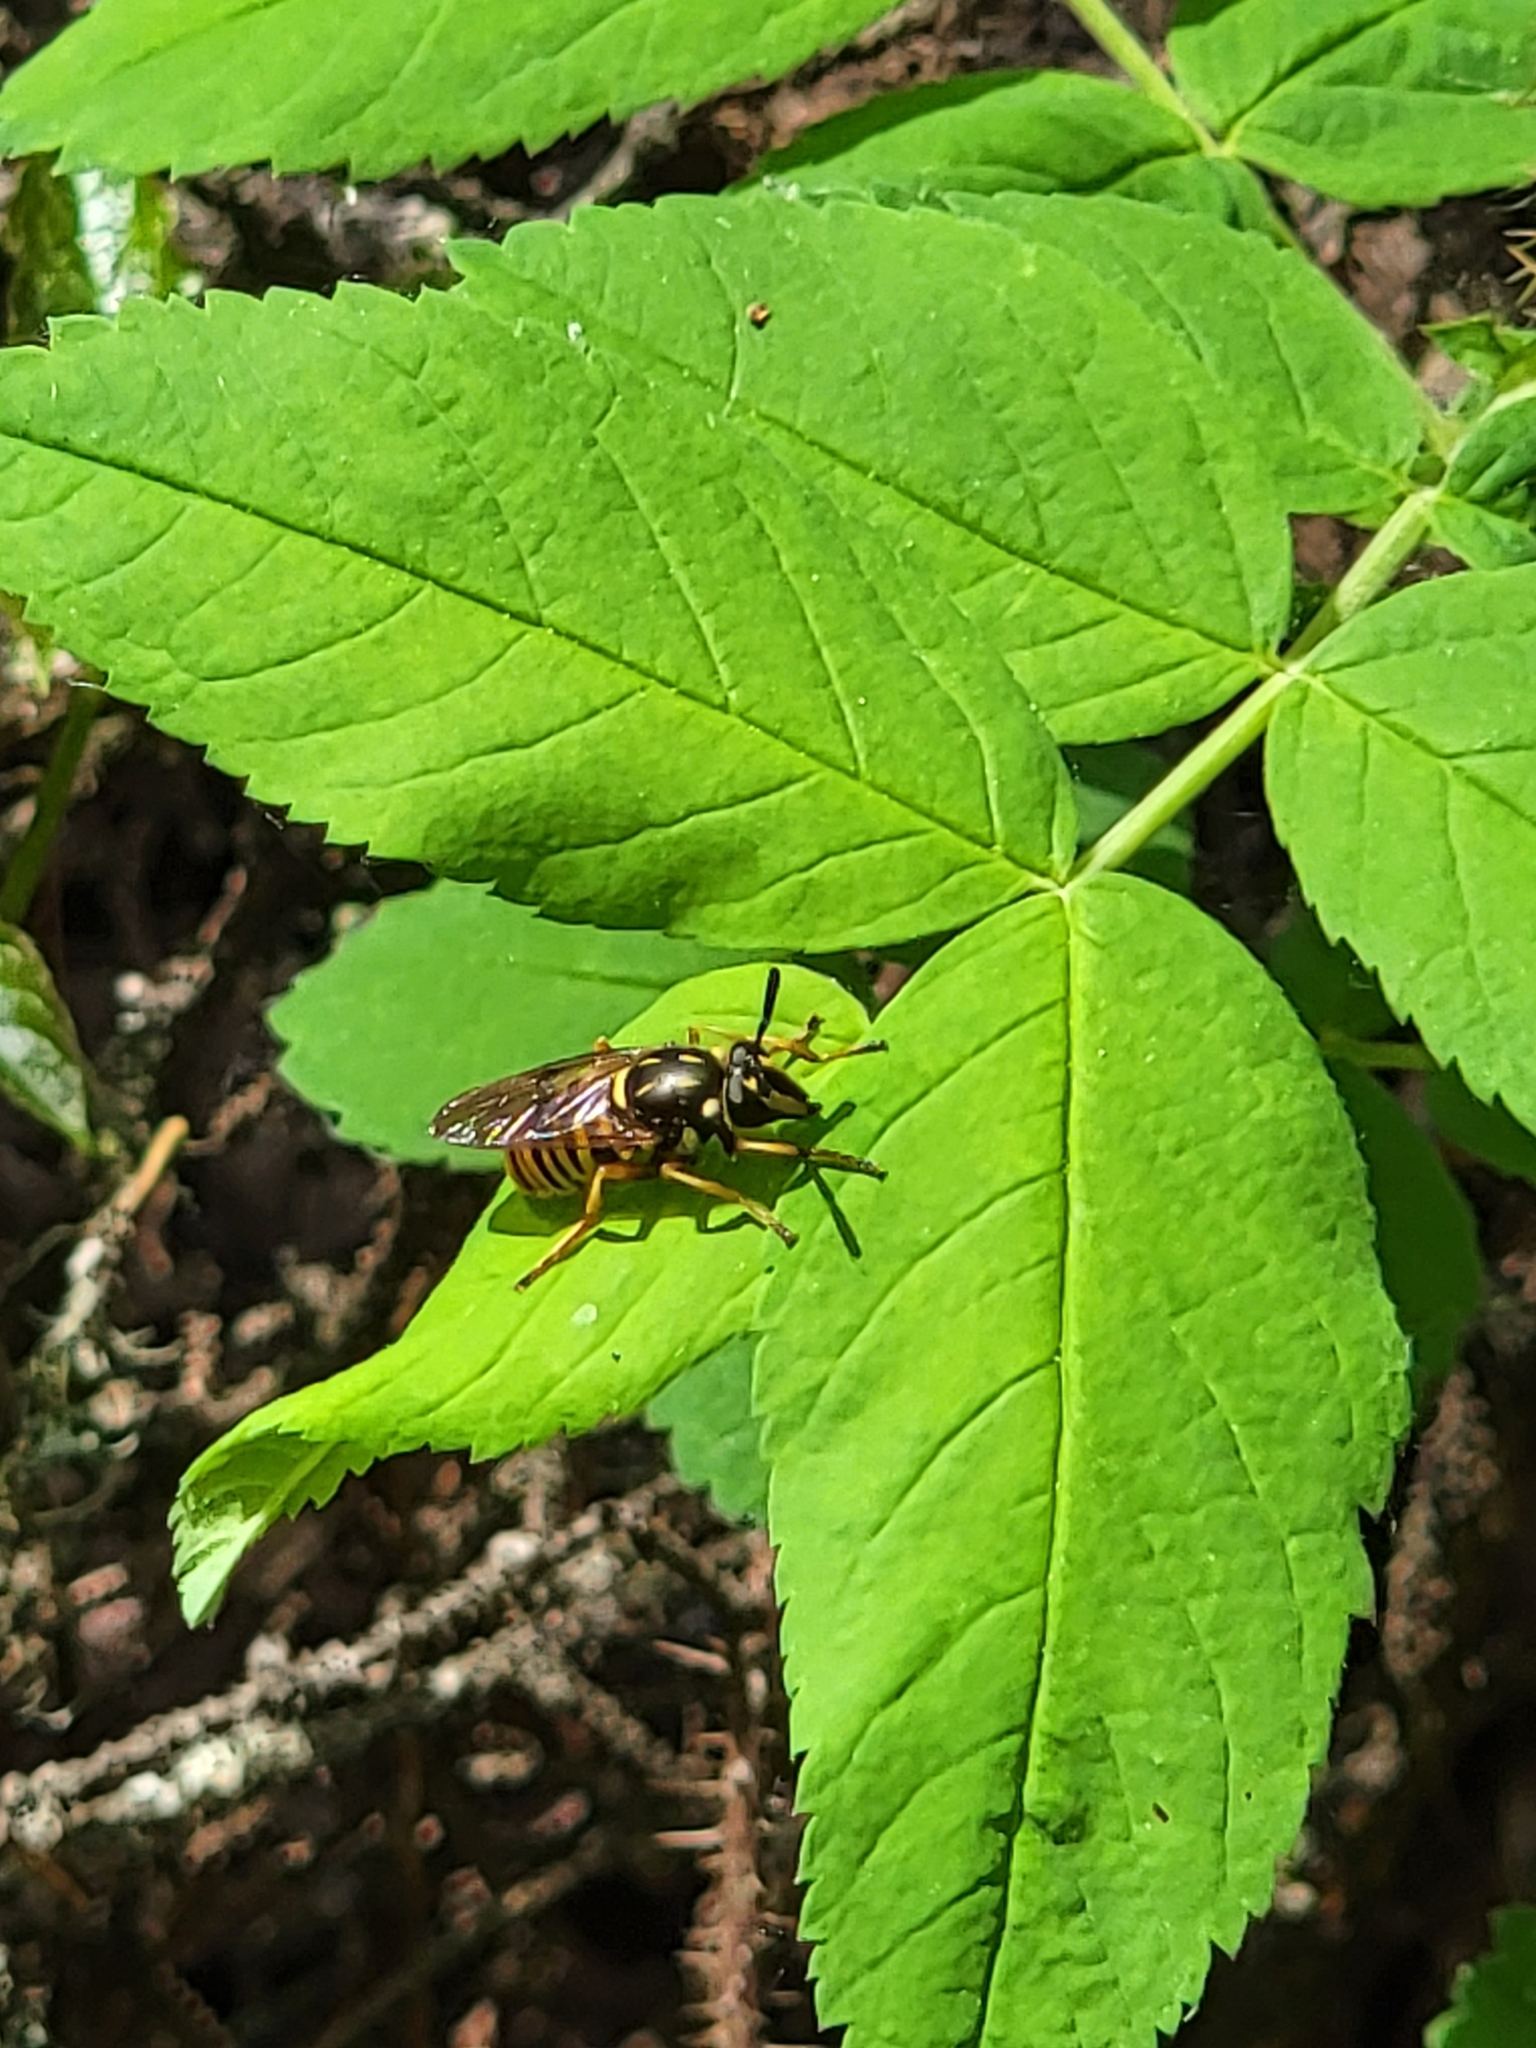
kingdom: Animalia
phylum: Arthropoda
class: Insecta
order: Diptera
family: Syrphidae
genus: Sphecomyia
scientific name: Sphecomyia vittata
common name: Long-horned yellowjacket fly
